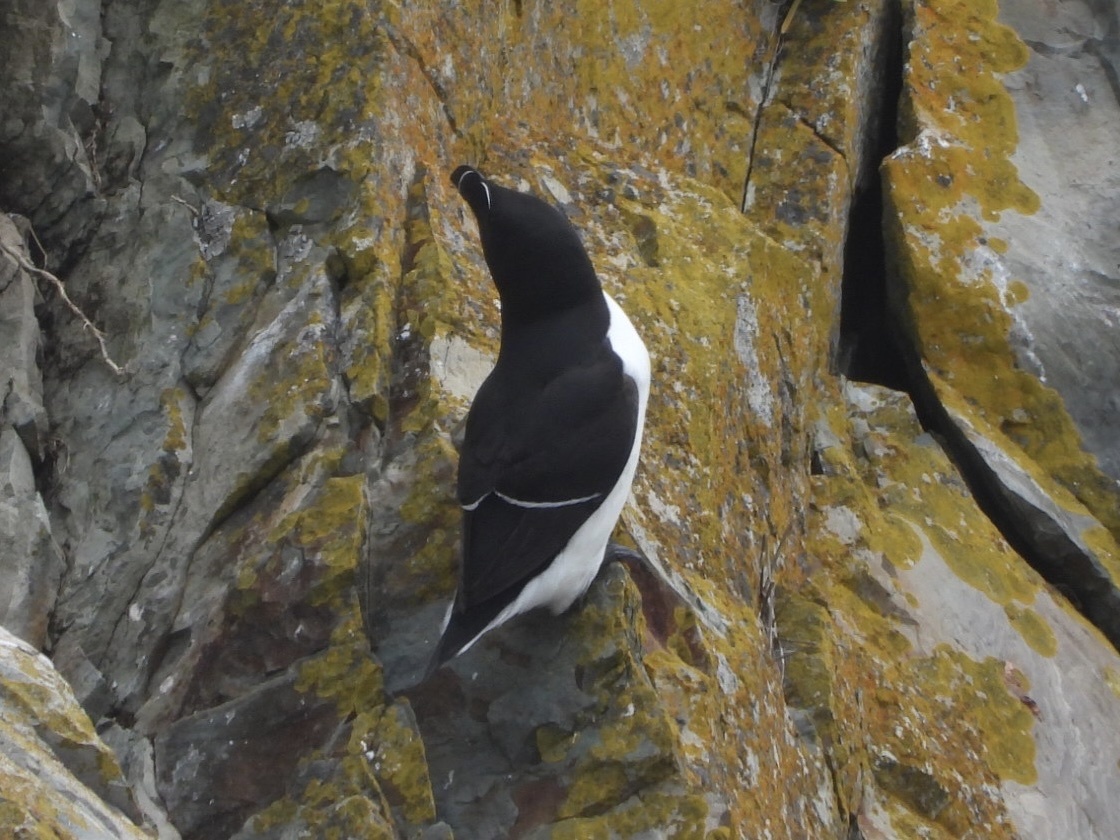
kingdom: Animalia
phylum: Chordata
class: Aves
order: Charadriiformes
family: Alcidae
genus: Alca
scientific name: Alca torda
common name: Razorbill
